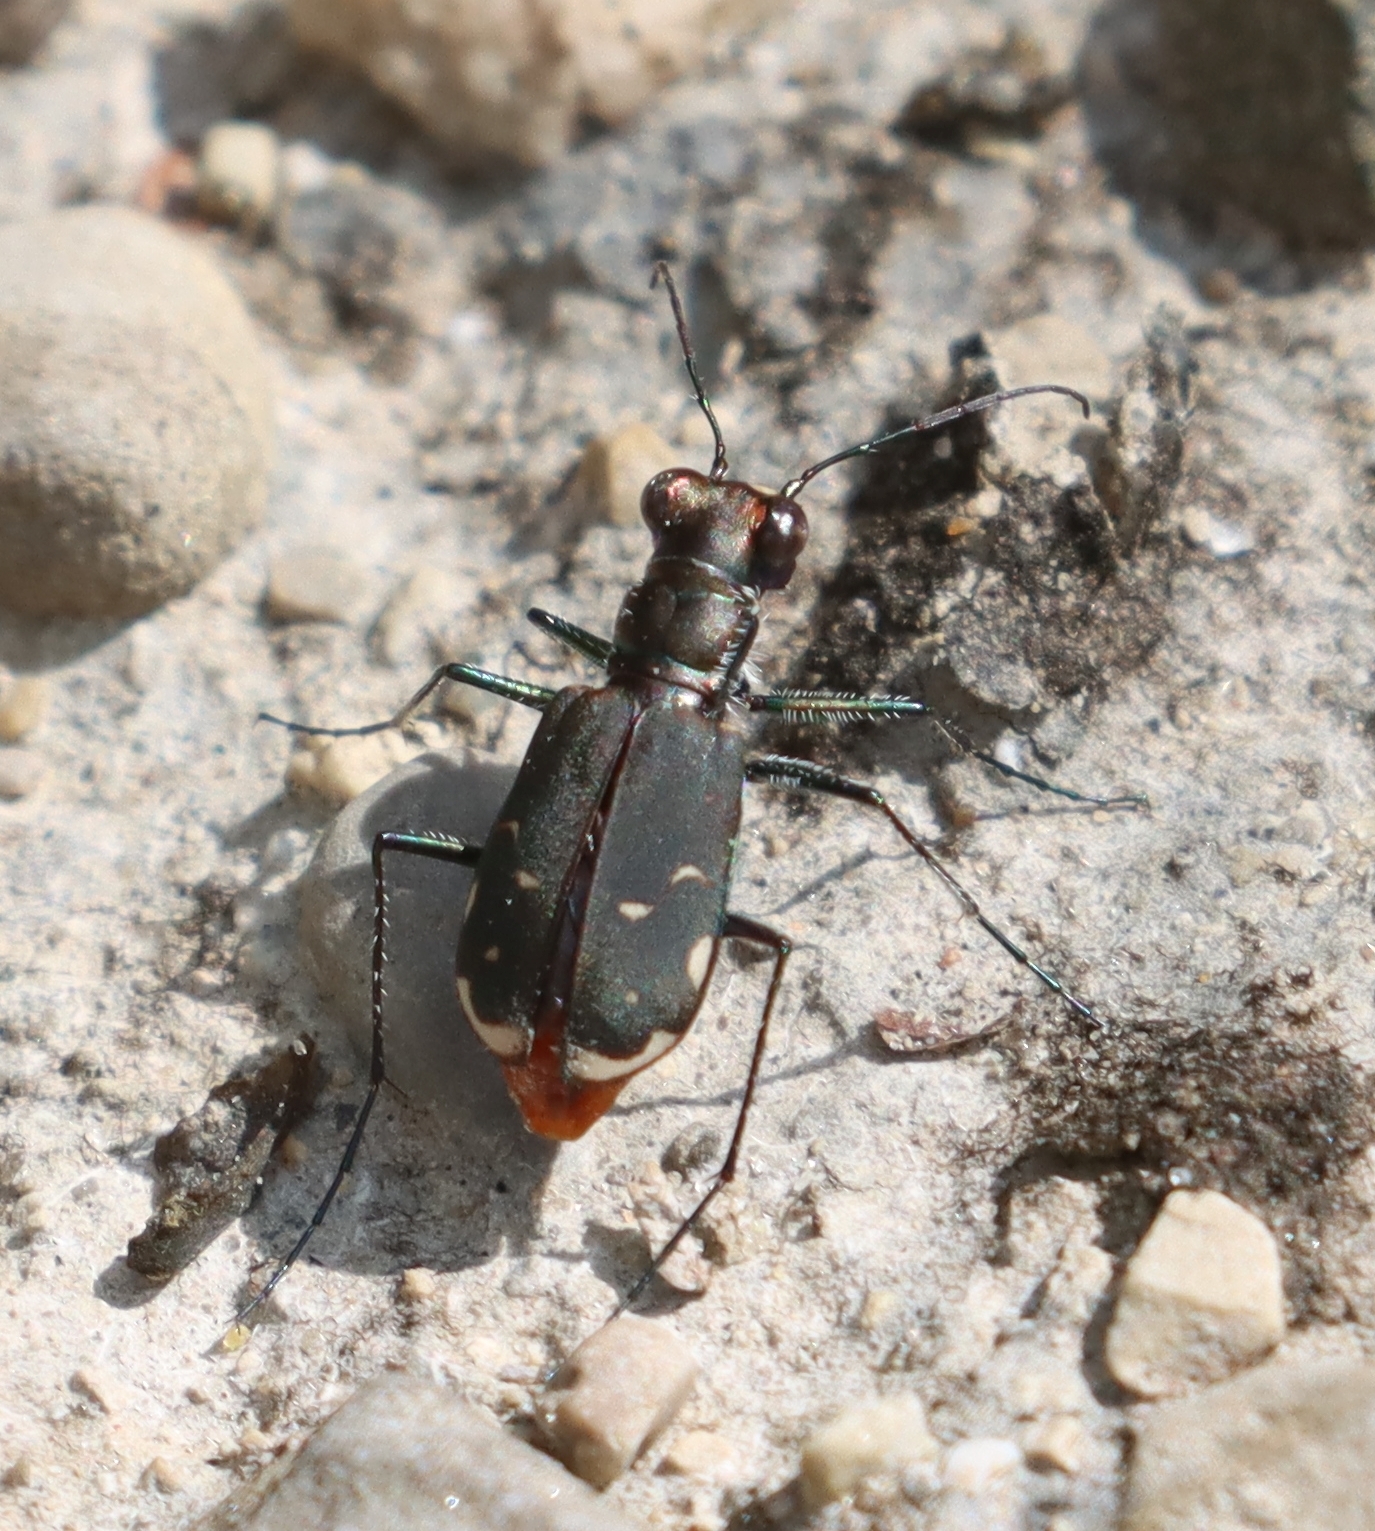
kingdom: Animalia
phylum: Arthropoda
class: Insecta
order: Coleoptera
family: Carabidae
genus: Cicindela
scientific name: Cicindela rufiventris
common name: Eastern red-bellied tiger beetle
